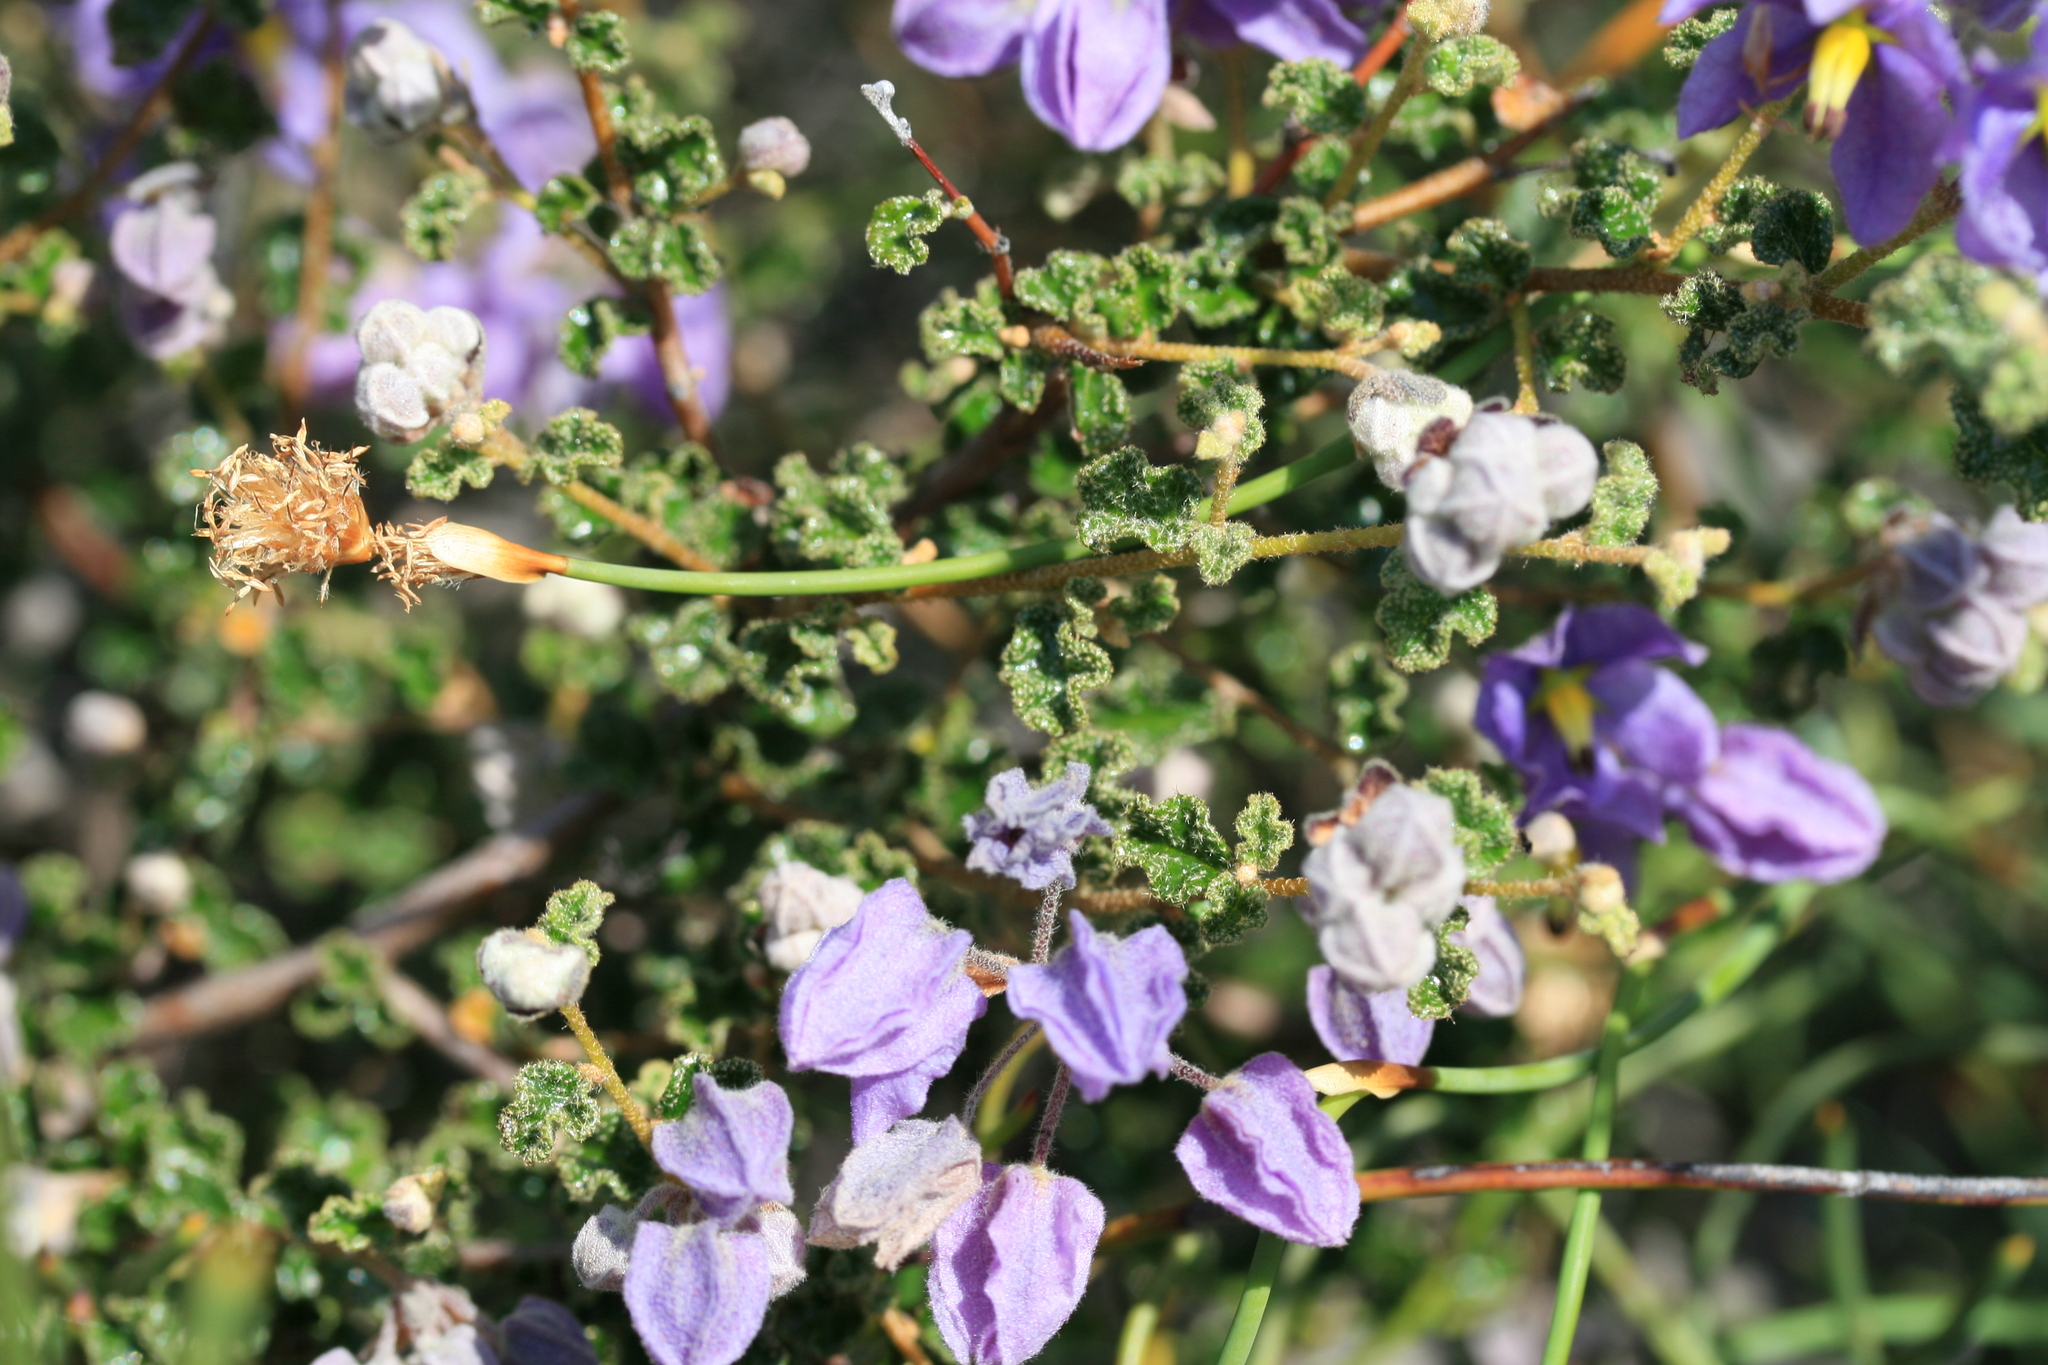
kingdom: Plantae
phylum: Tracheophyta
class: Magnoliopsida
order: Malvales
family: Malvaceae
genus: Seringia
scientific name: Seringia hermannifolia
